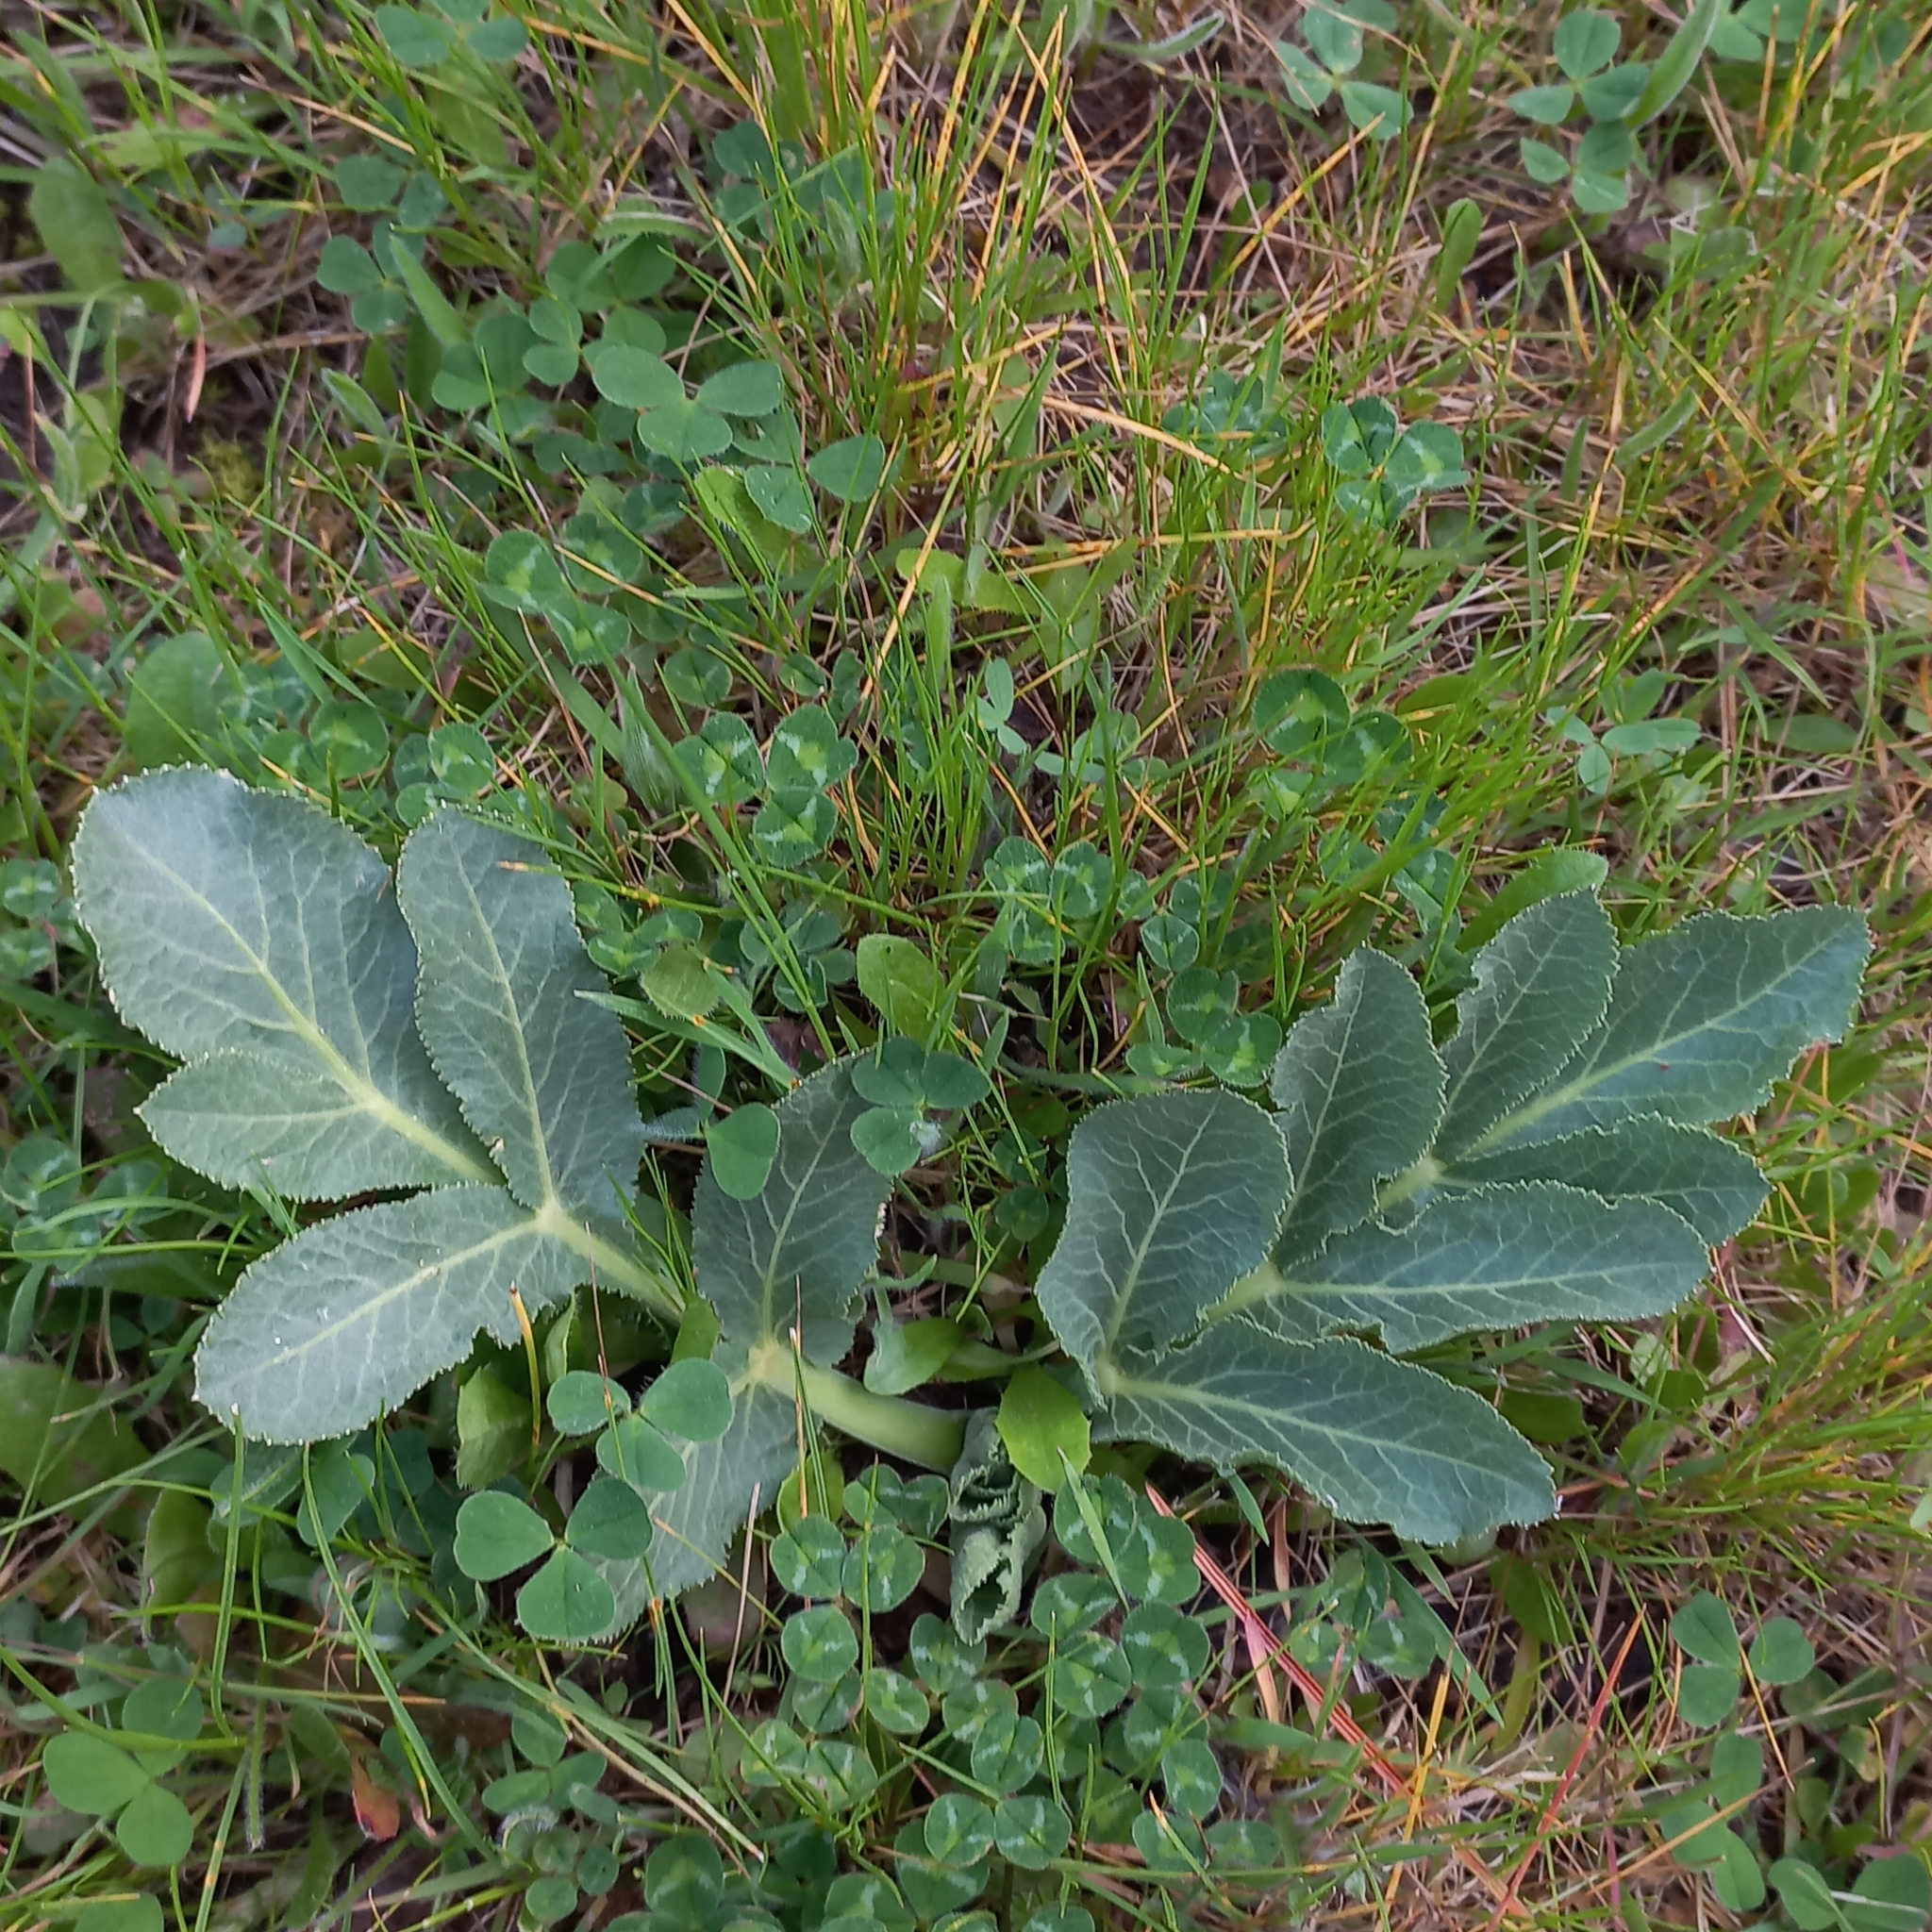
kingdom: Plantae
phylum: Tracheophyta
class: Magnoliopsida
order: Apiales
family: Apiaceae
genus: Magydaris
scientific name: Magydaris panacifolia
